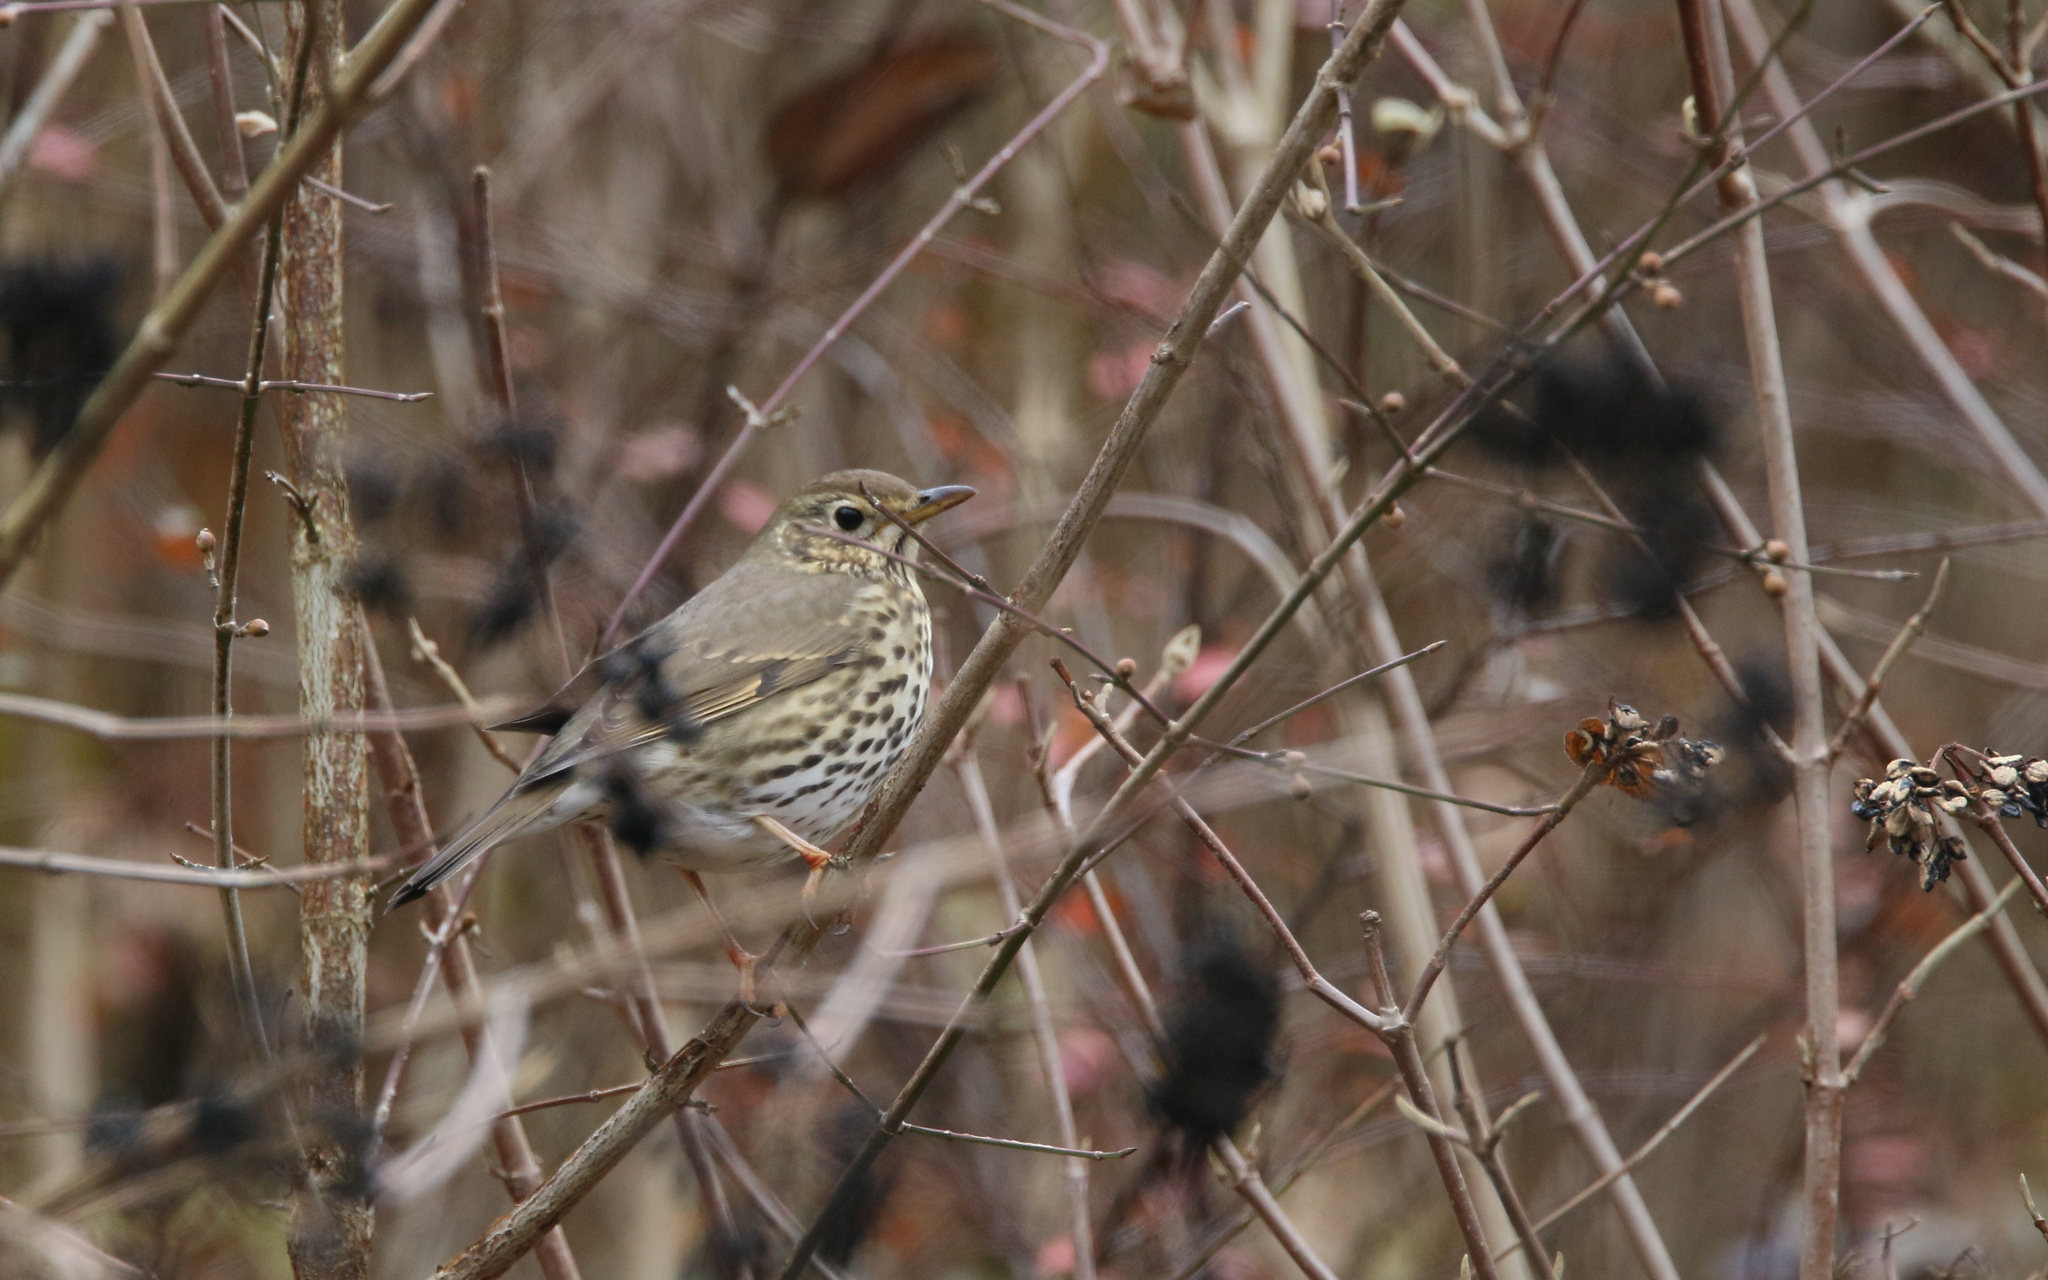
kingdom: Animalia
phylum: Chordata
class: Aves
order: Passeriformes
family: Turdidae
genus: Turdus
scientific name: Turdus philomelos
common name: Song thrush
